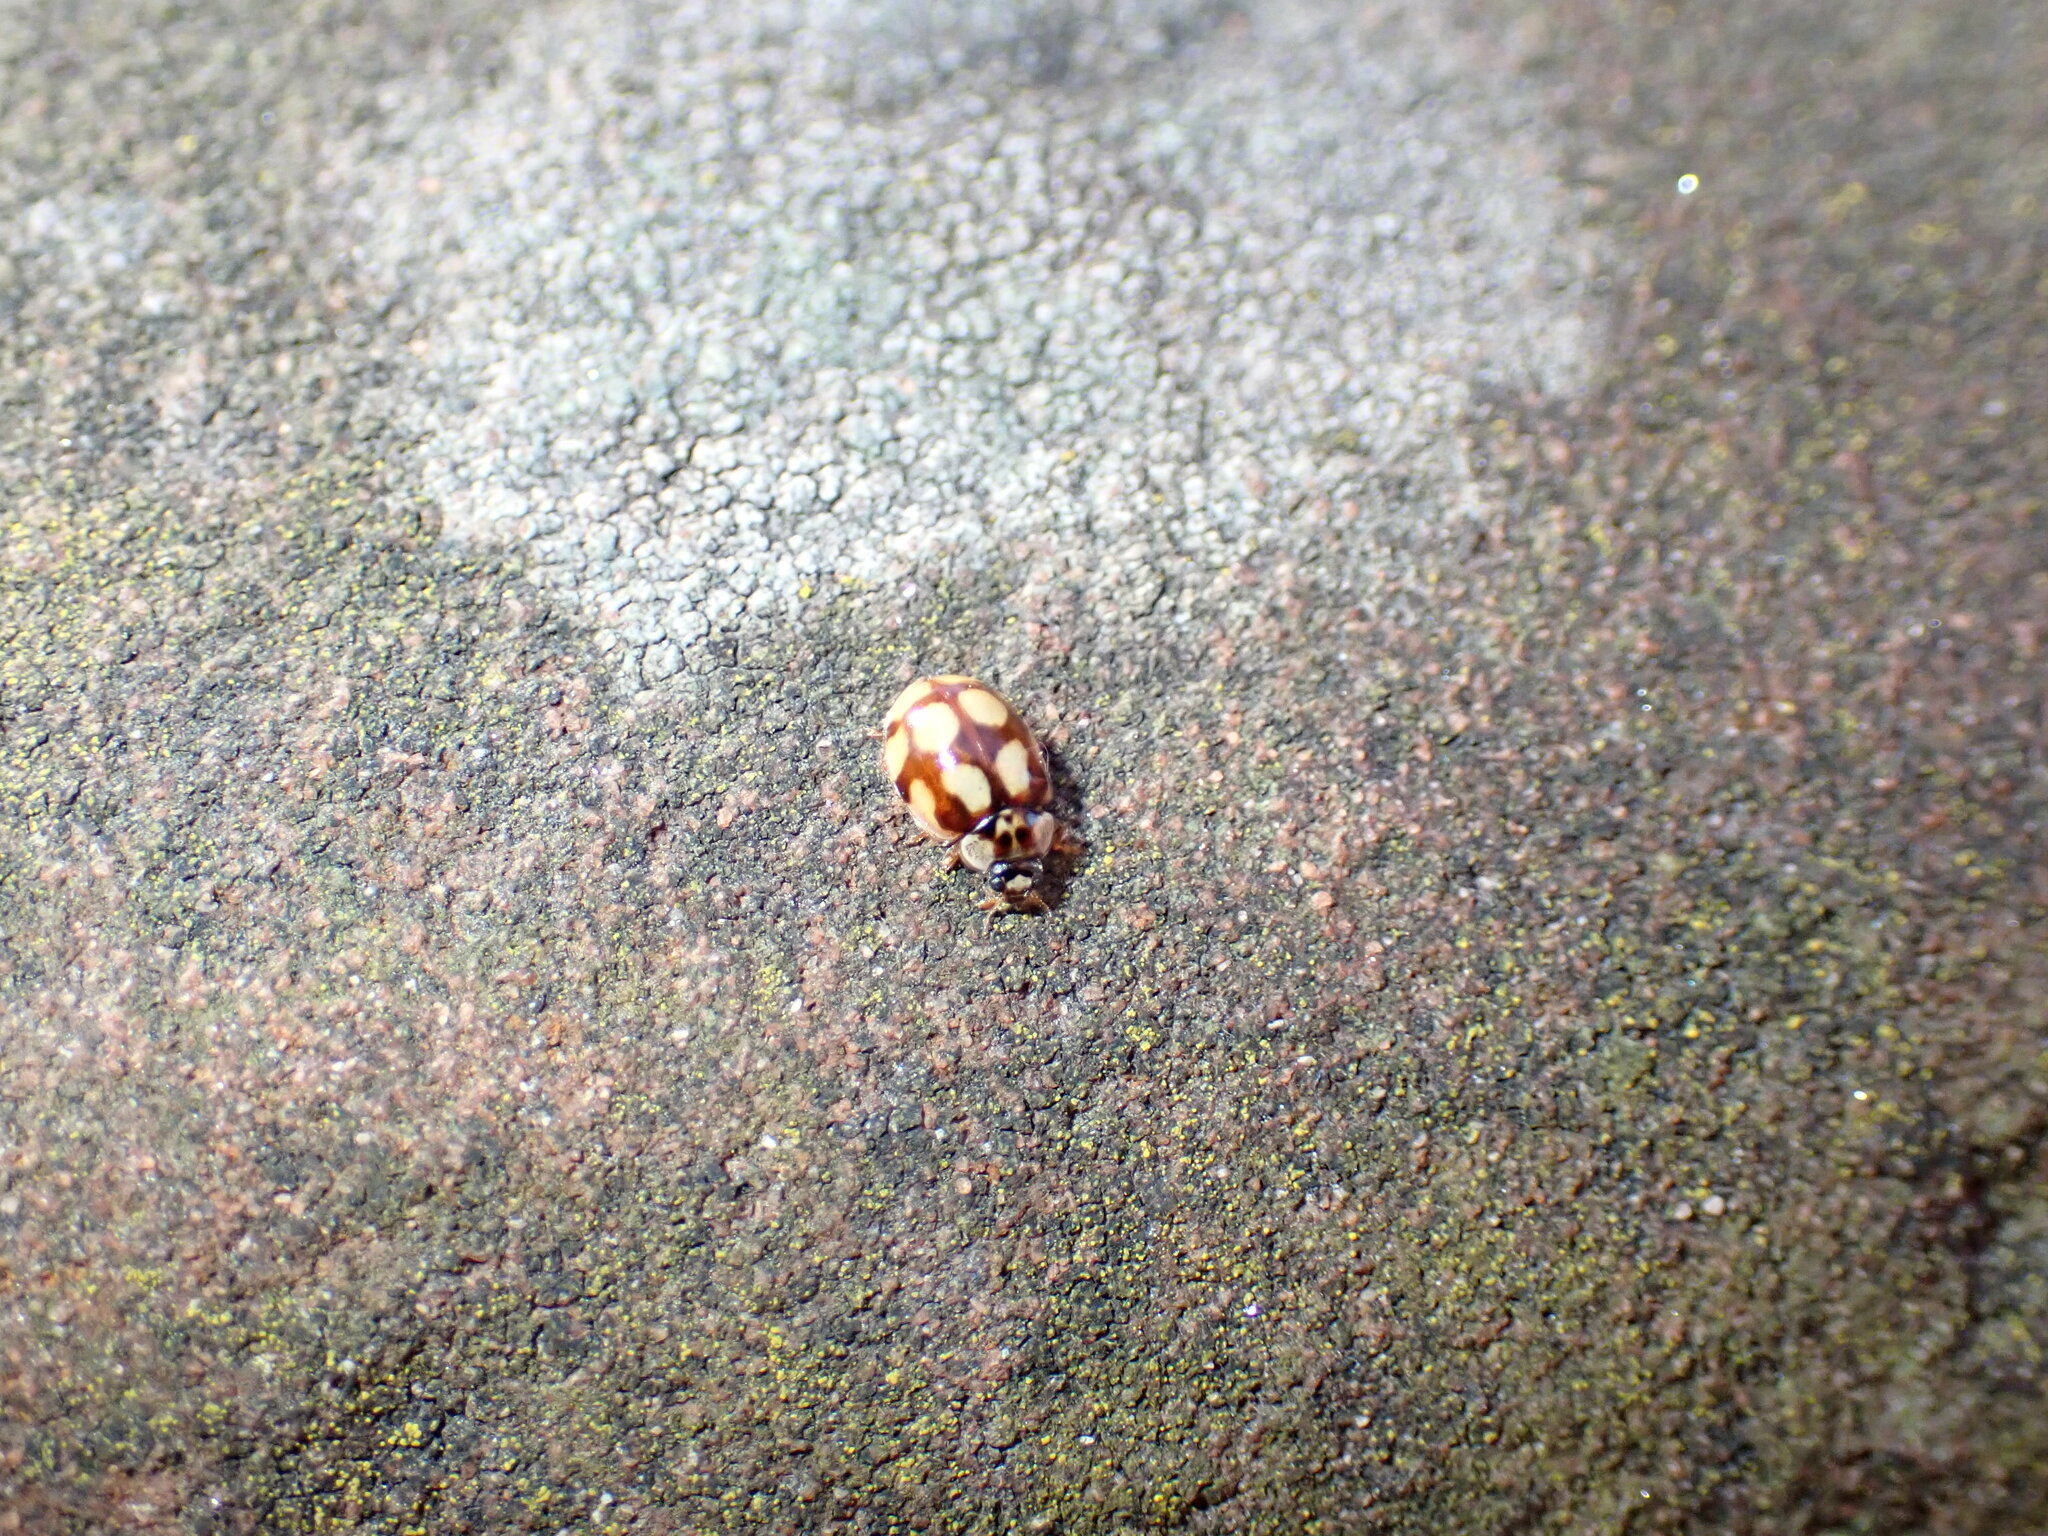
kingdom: Animalia
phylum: Arthropoda
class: Insecta
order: Coleoptera
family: Coccinellidae
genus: Adalia
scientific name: Adalia decempunctata
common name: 10-spot ladybird
